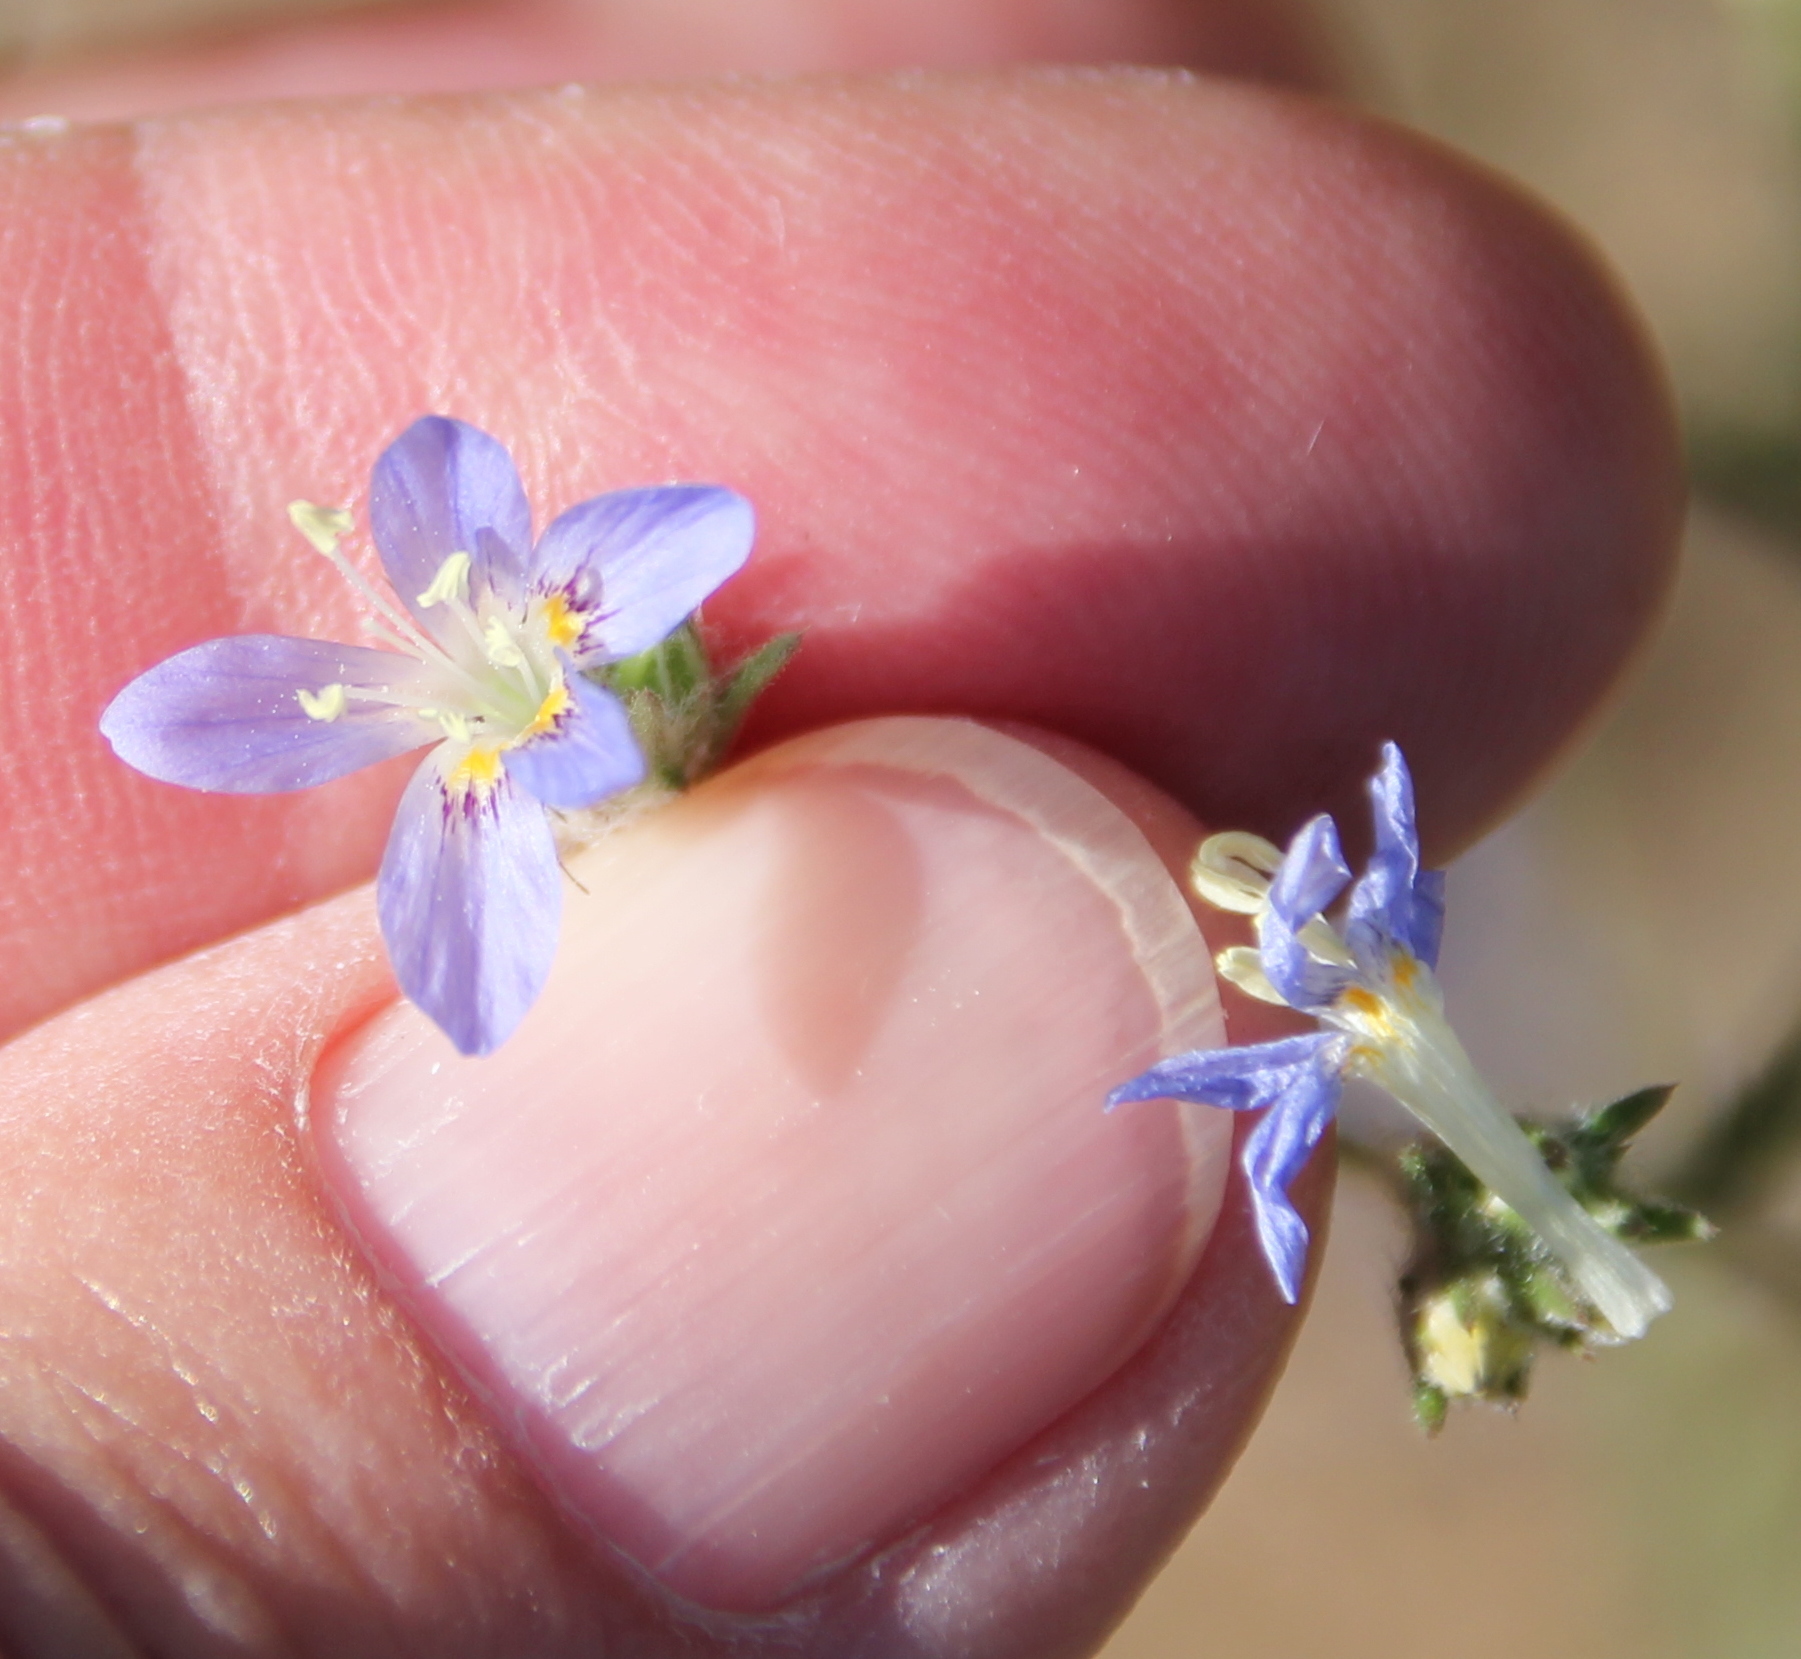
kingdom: Plantae
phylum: Tracheophyta
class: Magnoliopsida
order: Ericales
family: Polemoniaceae
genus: Eriastrum
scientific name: Eriastrum sapphirinum
